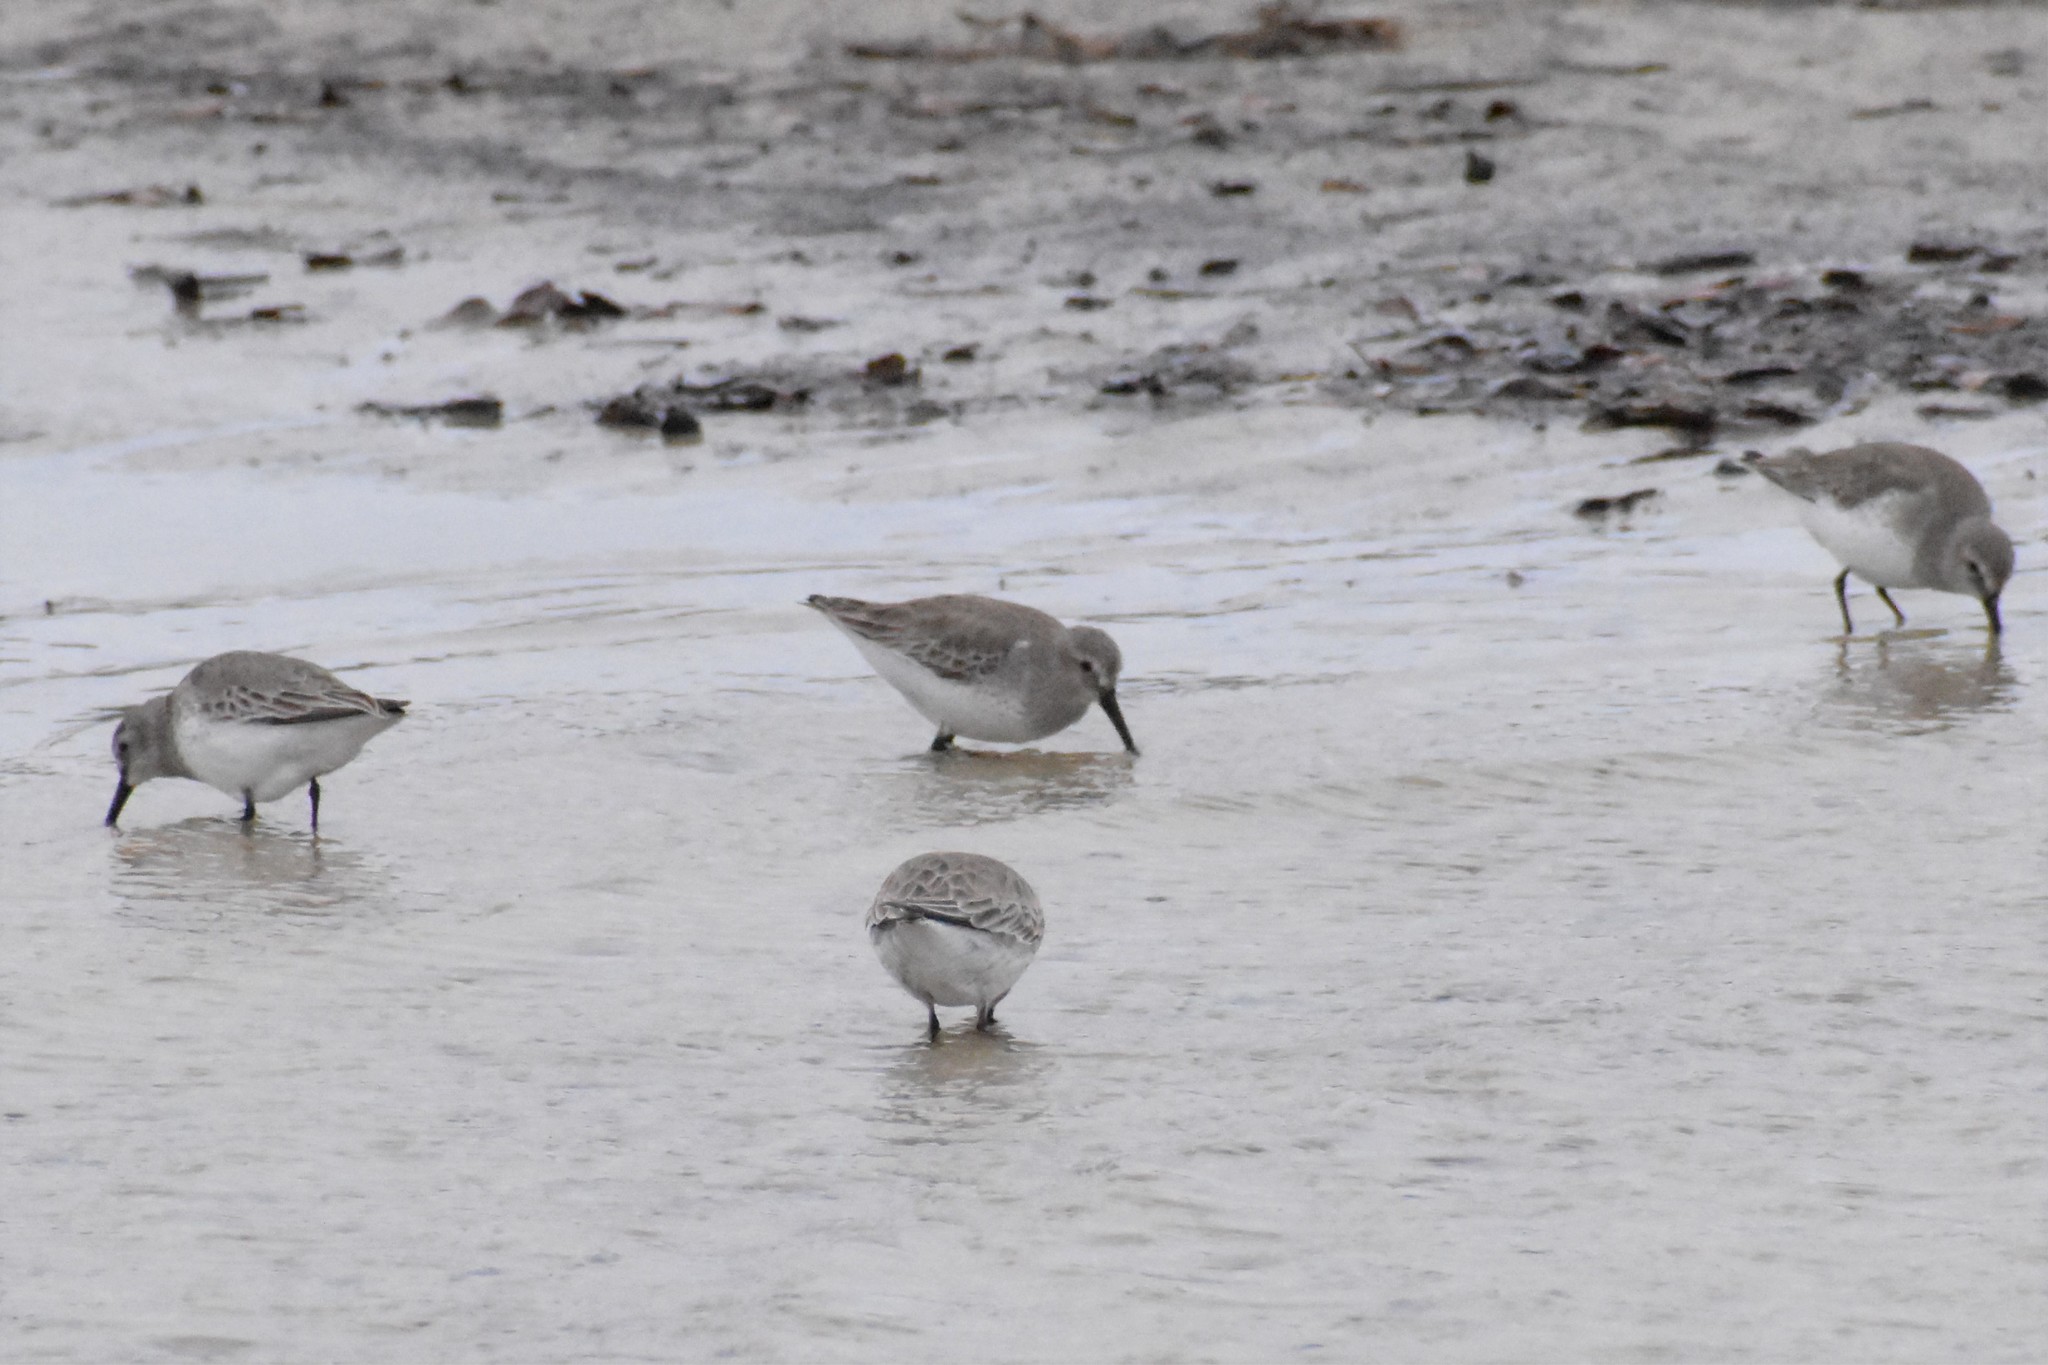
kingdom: Animalia
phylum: Chordata
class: Aves
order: Charadriiformes
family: Scolopacidae
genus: Calidris
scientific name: Calidris alpina
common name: Dunlin
